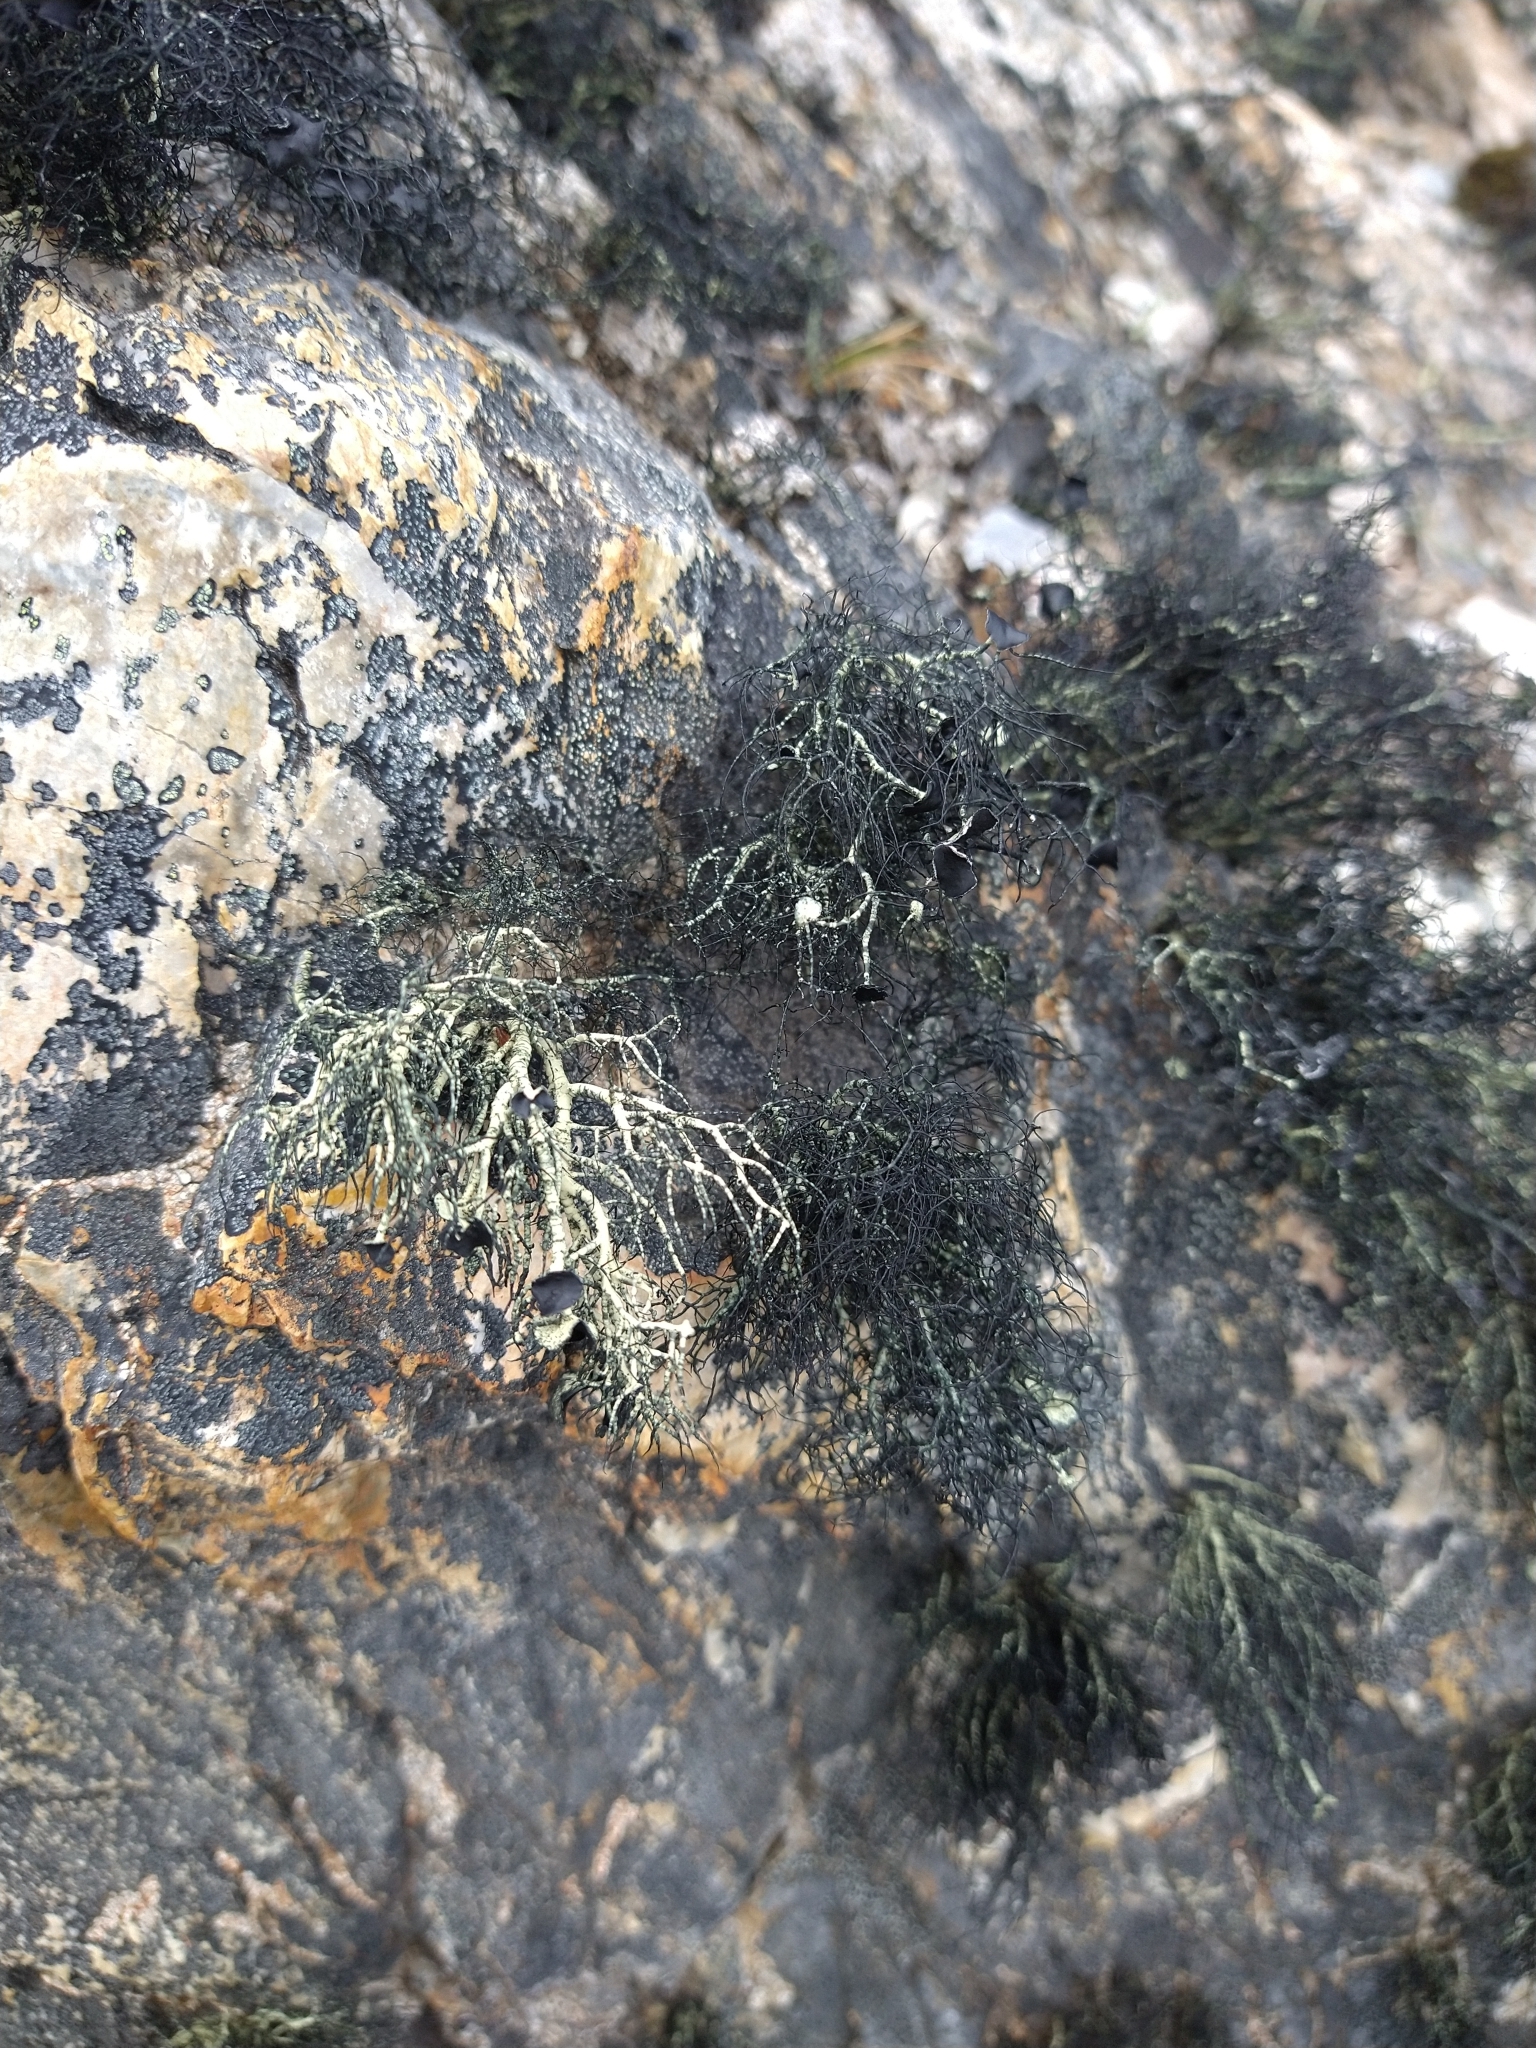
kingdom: Fungi
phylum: Ascomycota
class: Lecanoromycetes
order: Lecanorales
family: Parmeliaceae
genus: Usnea
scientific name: Usnea trachycarpa
